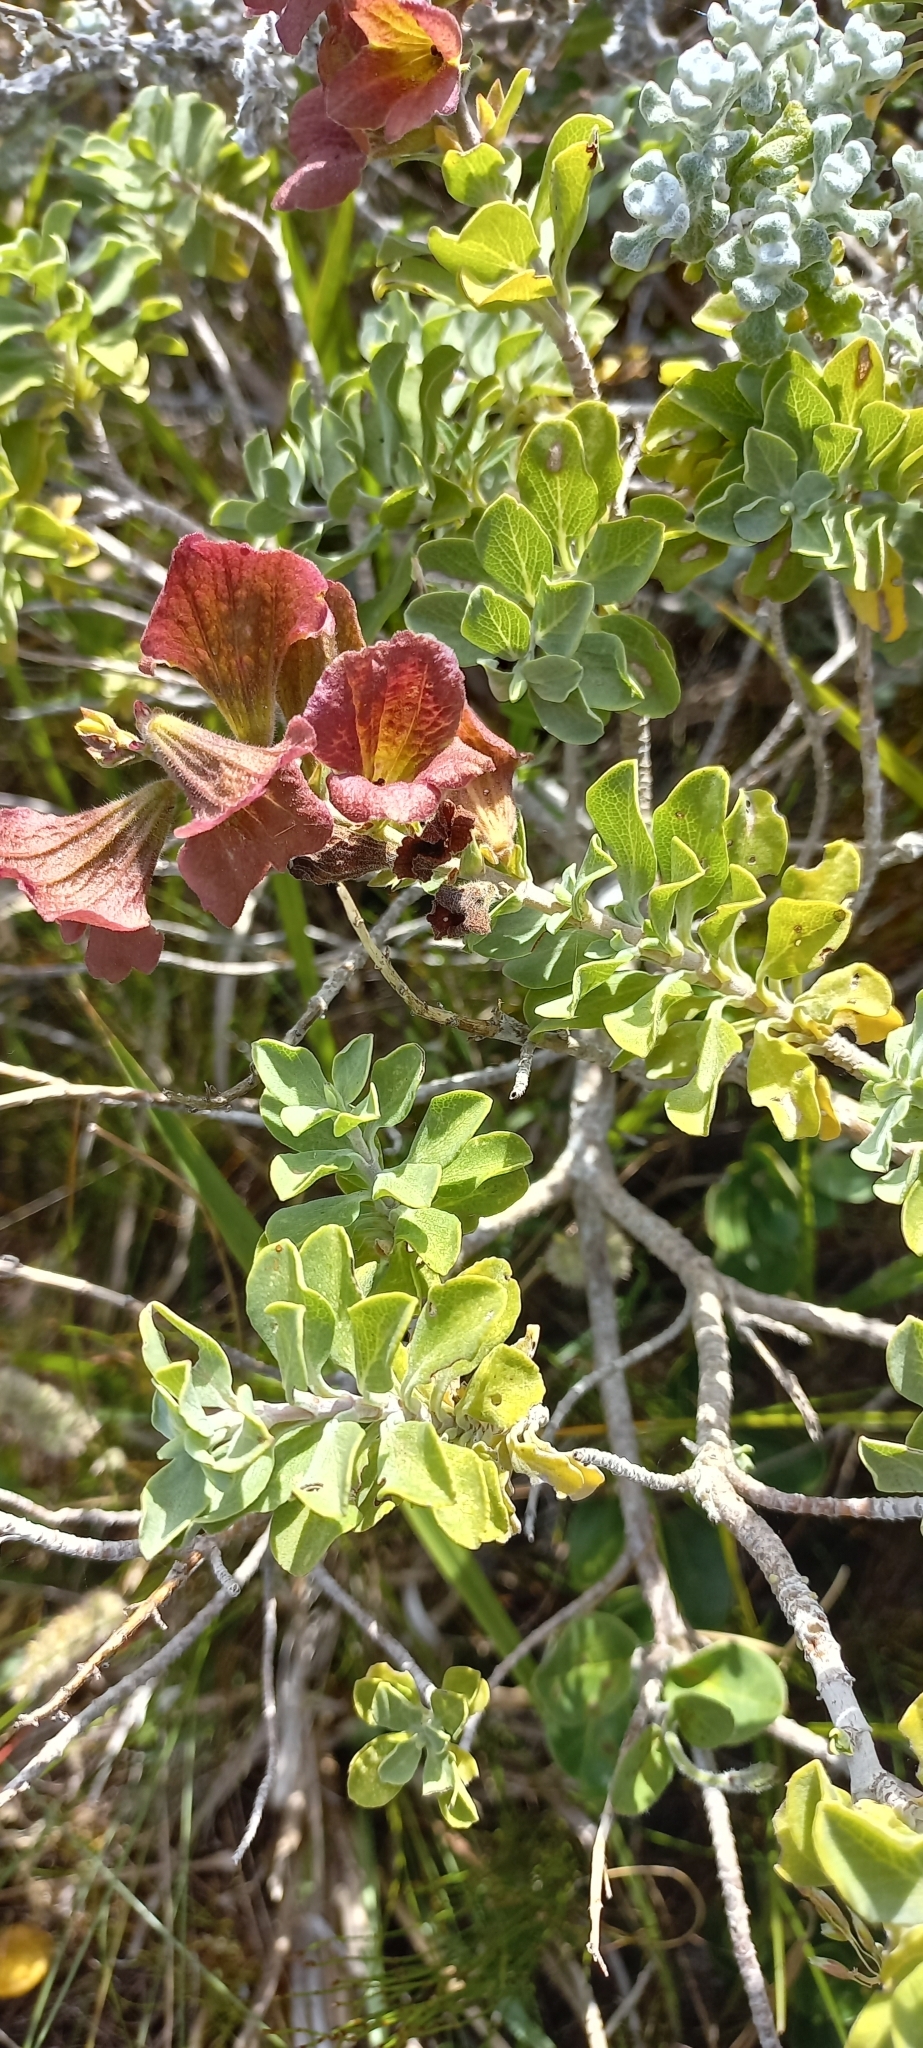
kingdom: Plantae
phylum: Tracheophyta
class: Magnoliopsida
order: Lamiales
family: Lamiaceae
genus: Salvia
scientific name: Salvia aurea
